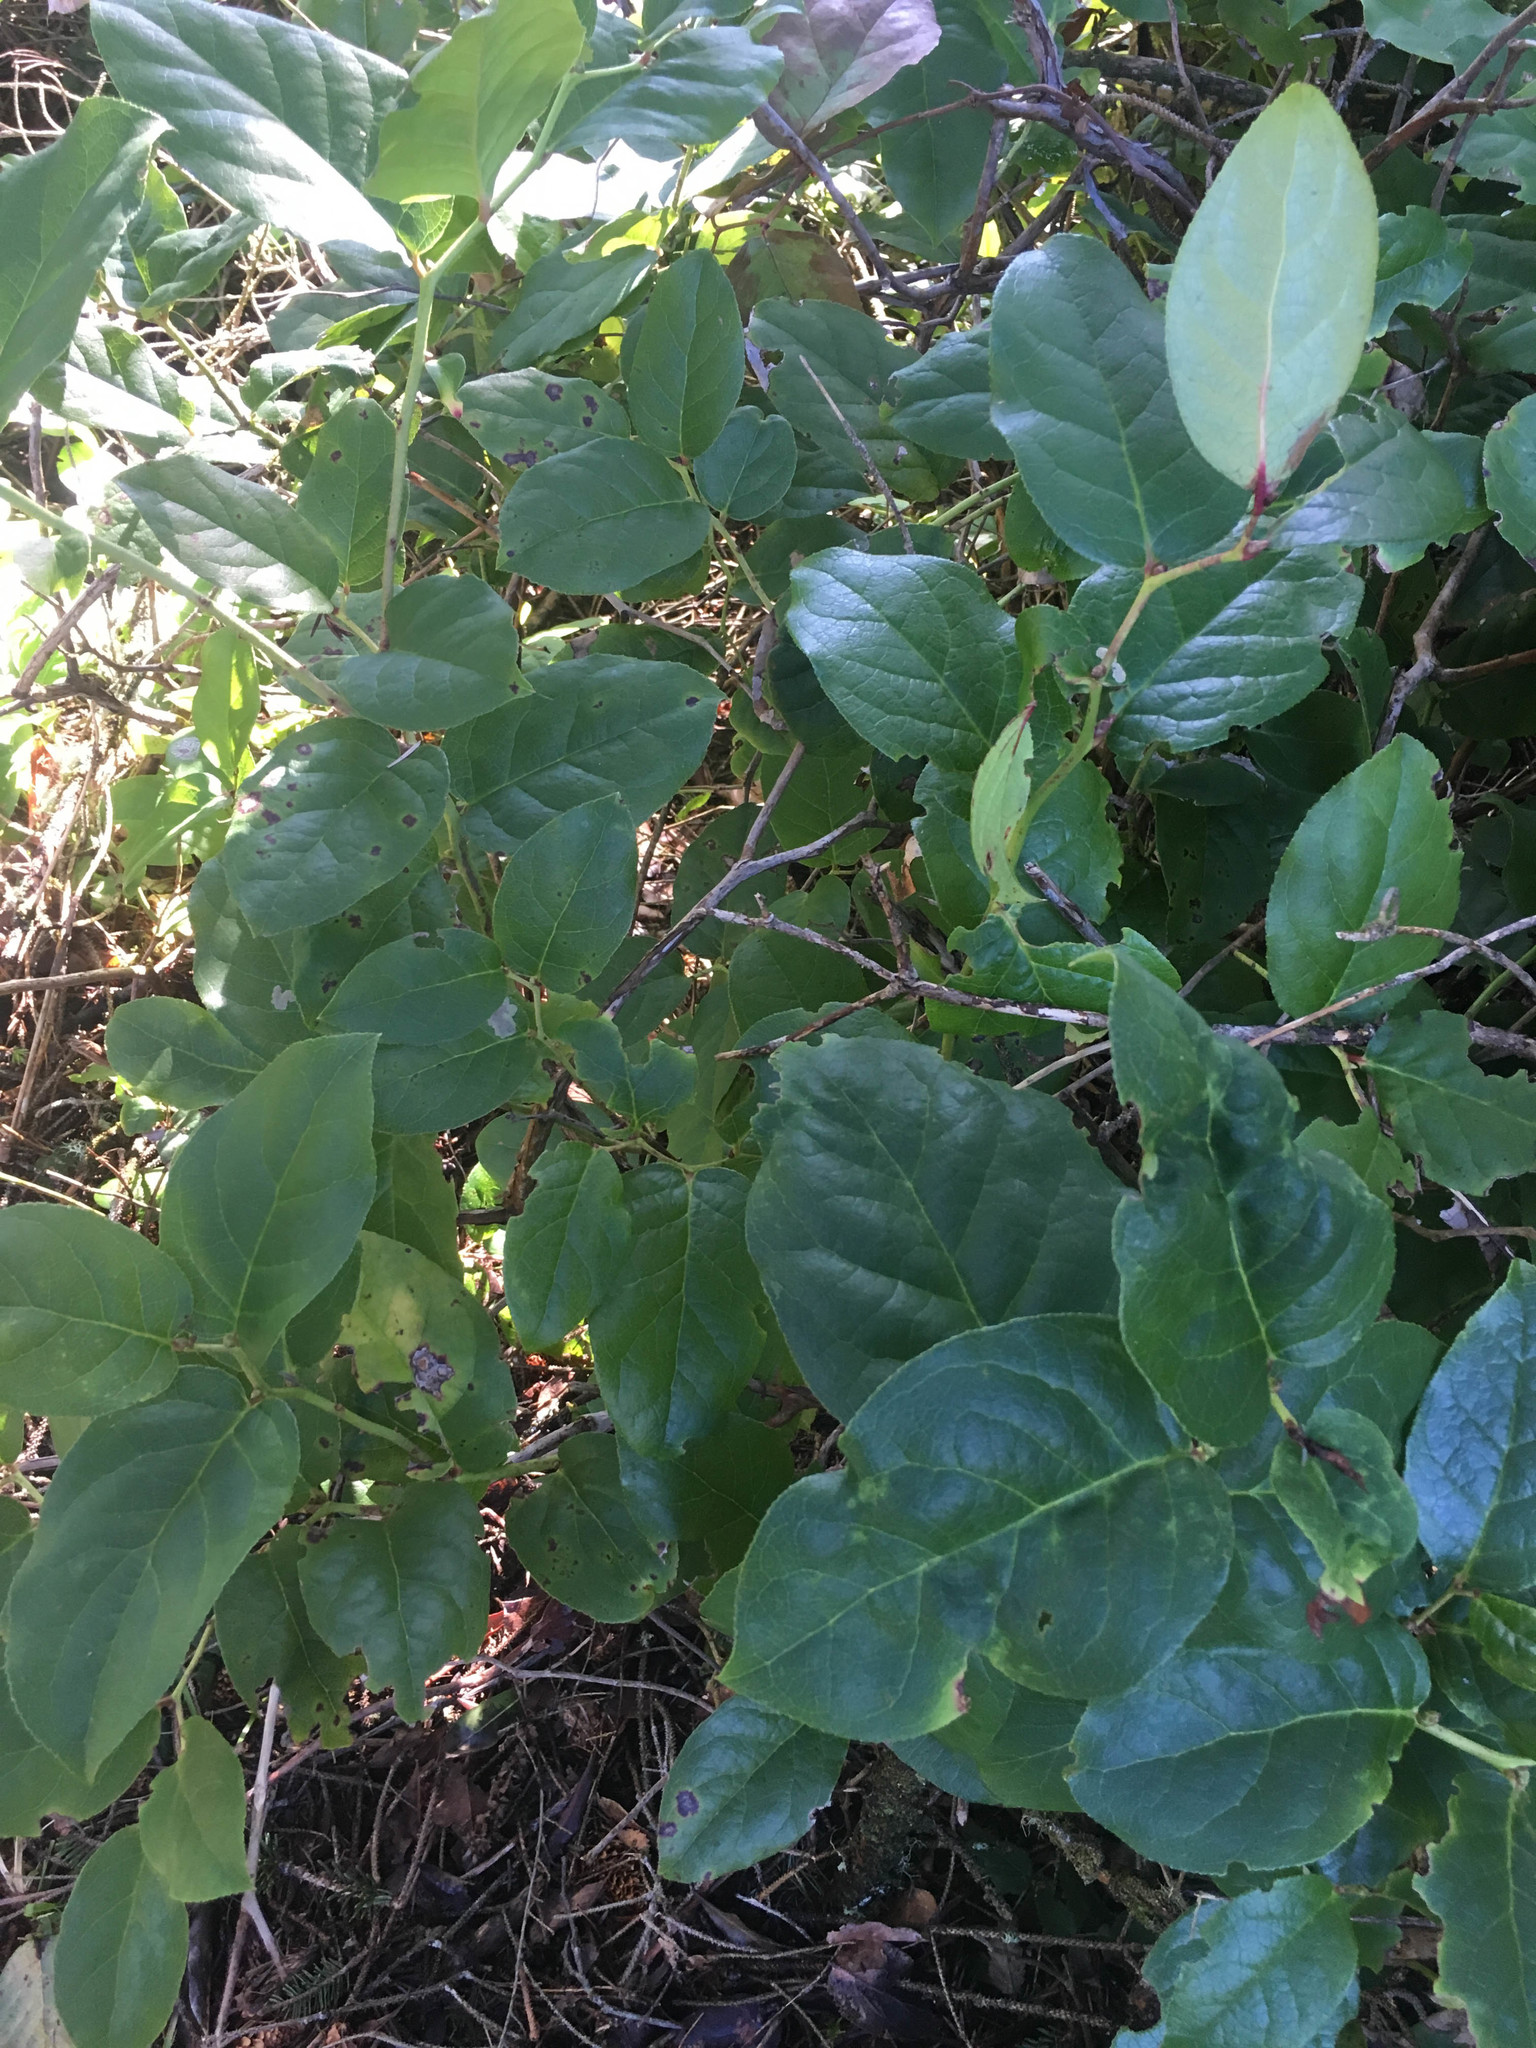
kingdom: Plantae
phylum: Tracheophyta
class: Magnoliopsida
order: Ericales
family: Ericaceae
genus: Gaultheria
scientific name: Gaultheria shallon
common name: Shallon
